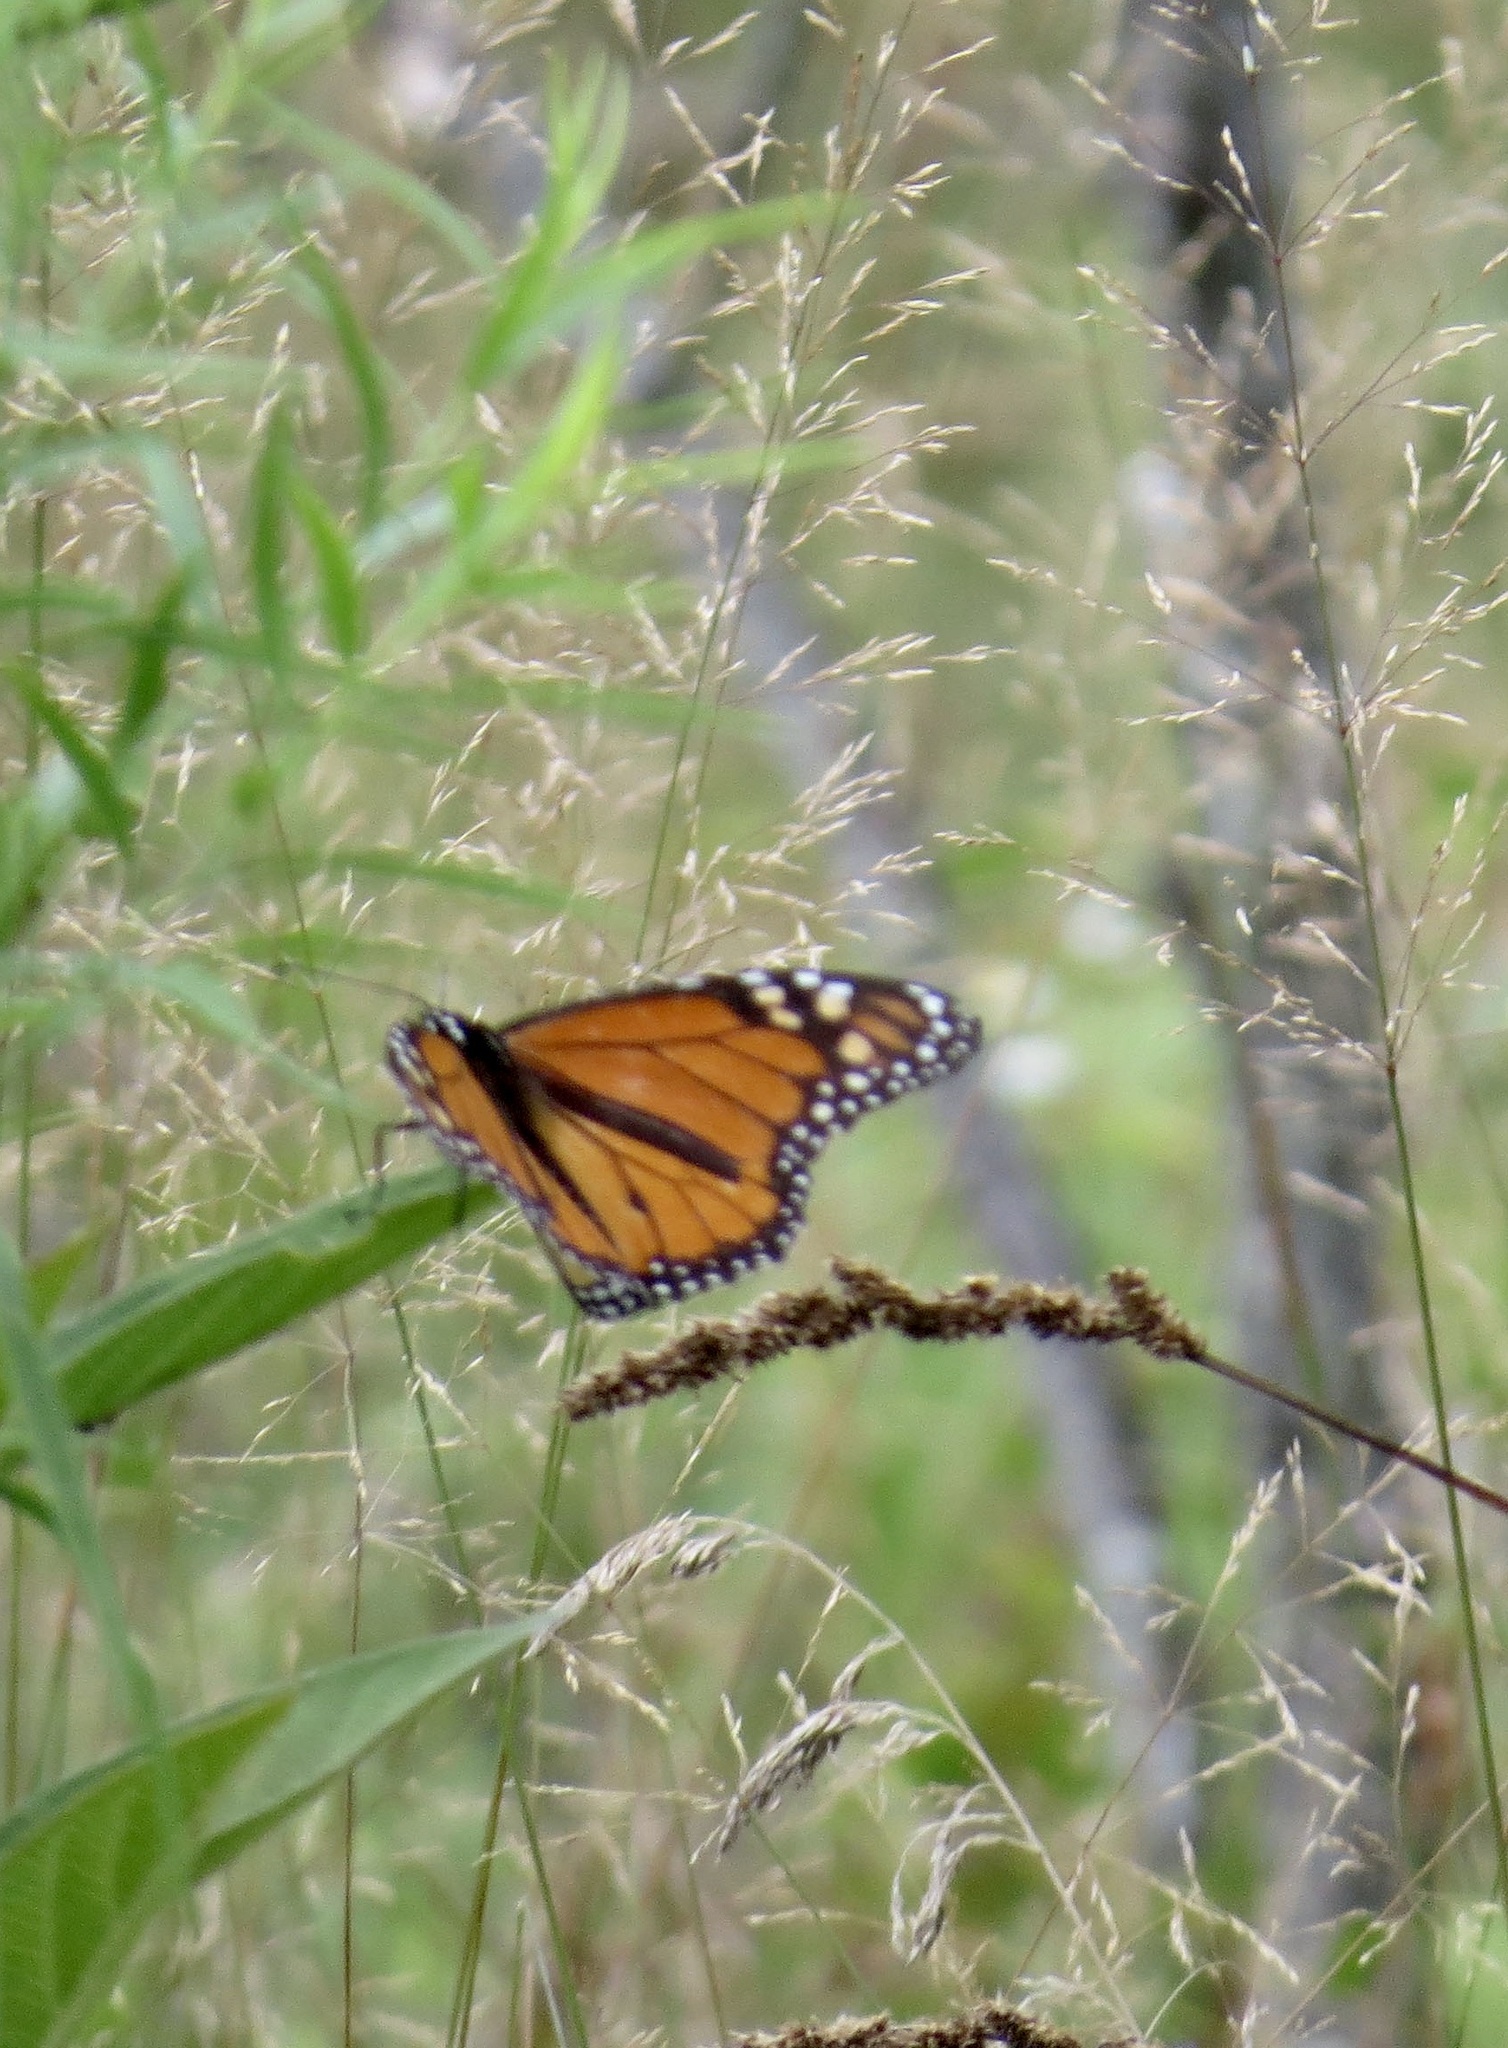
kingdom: Animalia
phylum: Arthropoda
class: Insecta
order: Lepidoptera
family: Nymphalidae
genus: Danaus
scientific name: Danaus plexippus
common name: Monarch
